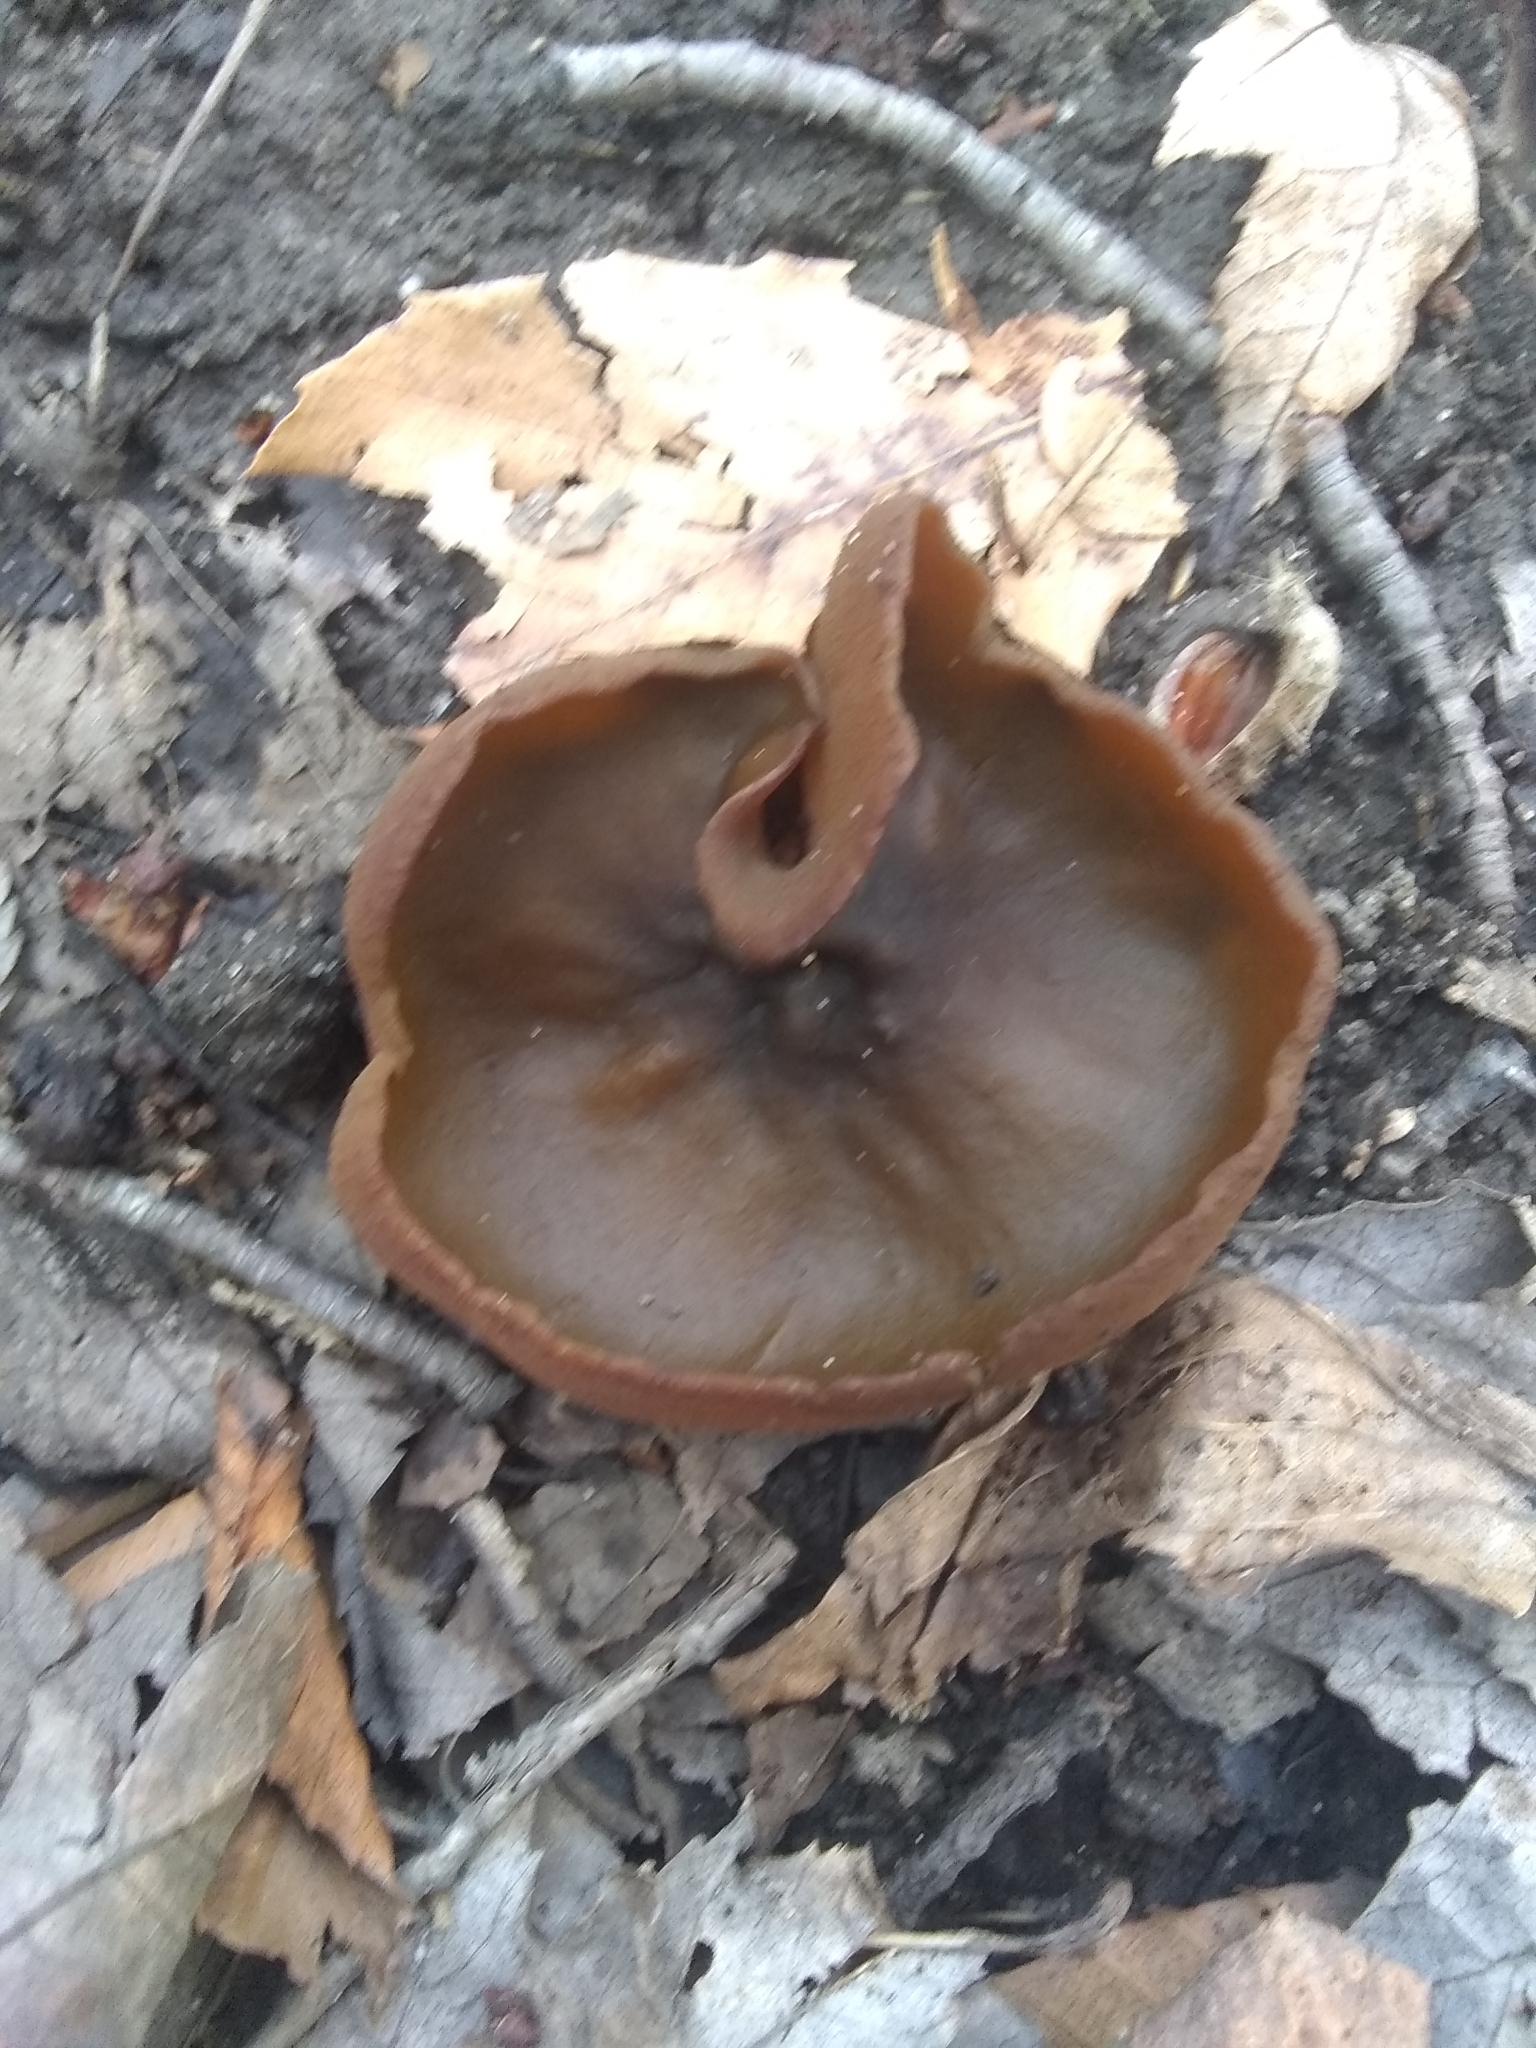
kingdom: Fungi
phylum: Ascomycota
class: Pezizomycetes
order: Pezizales
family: Pezizaceae
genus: Phylloscypha
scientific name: Phylloscypha phyllogena
